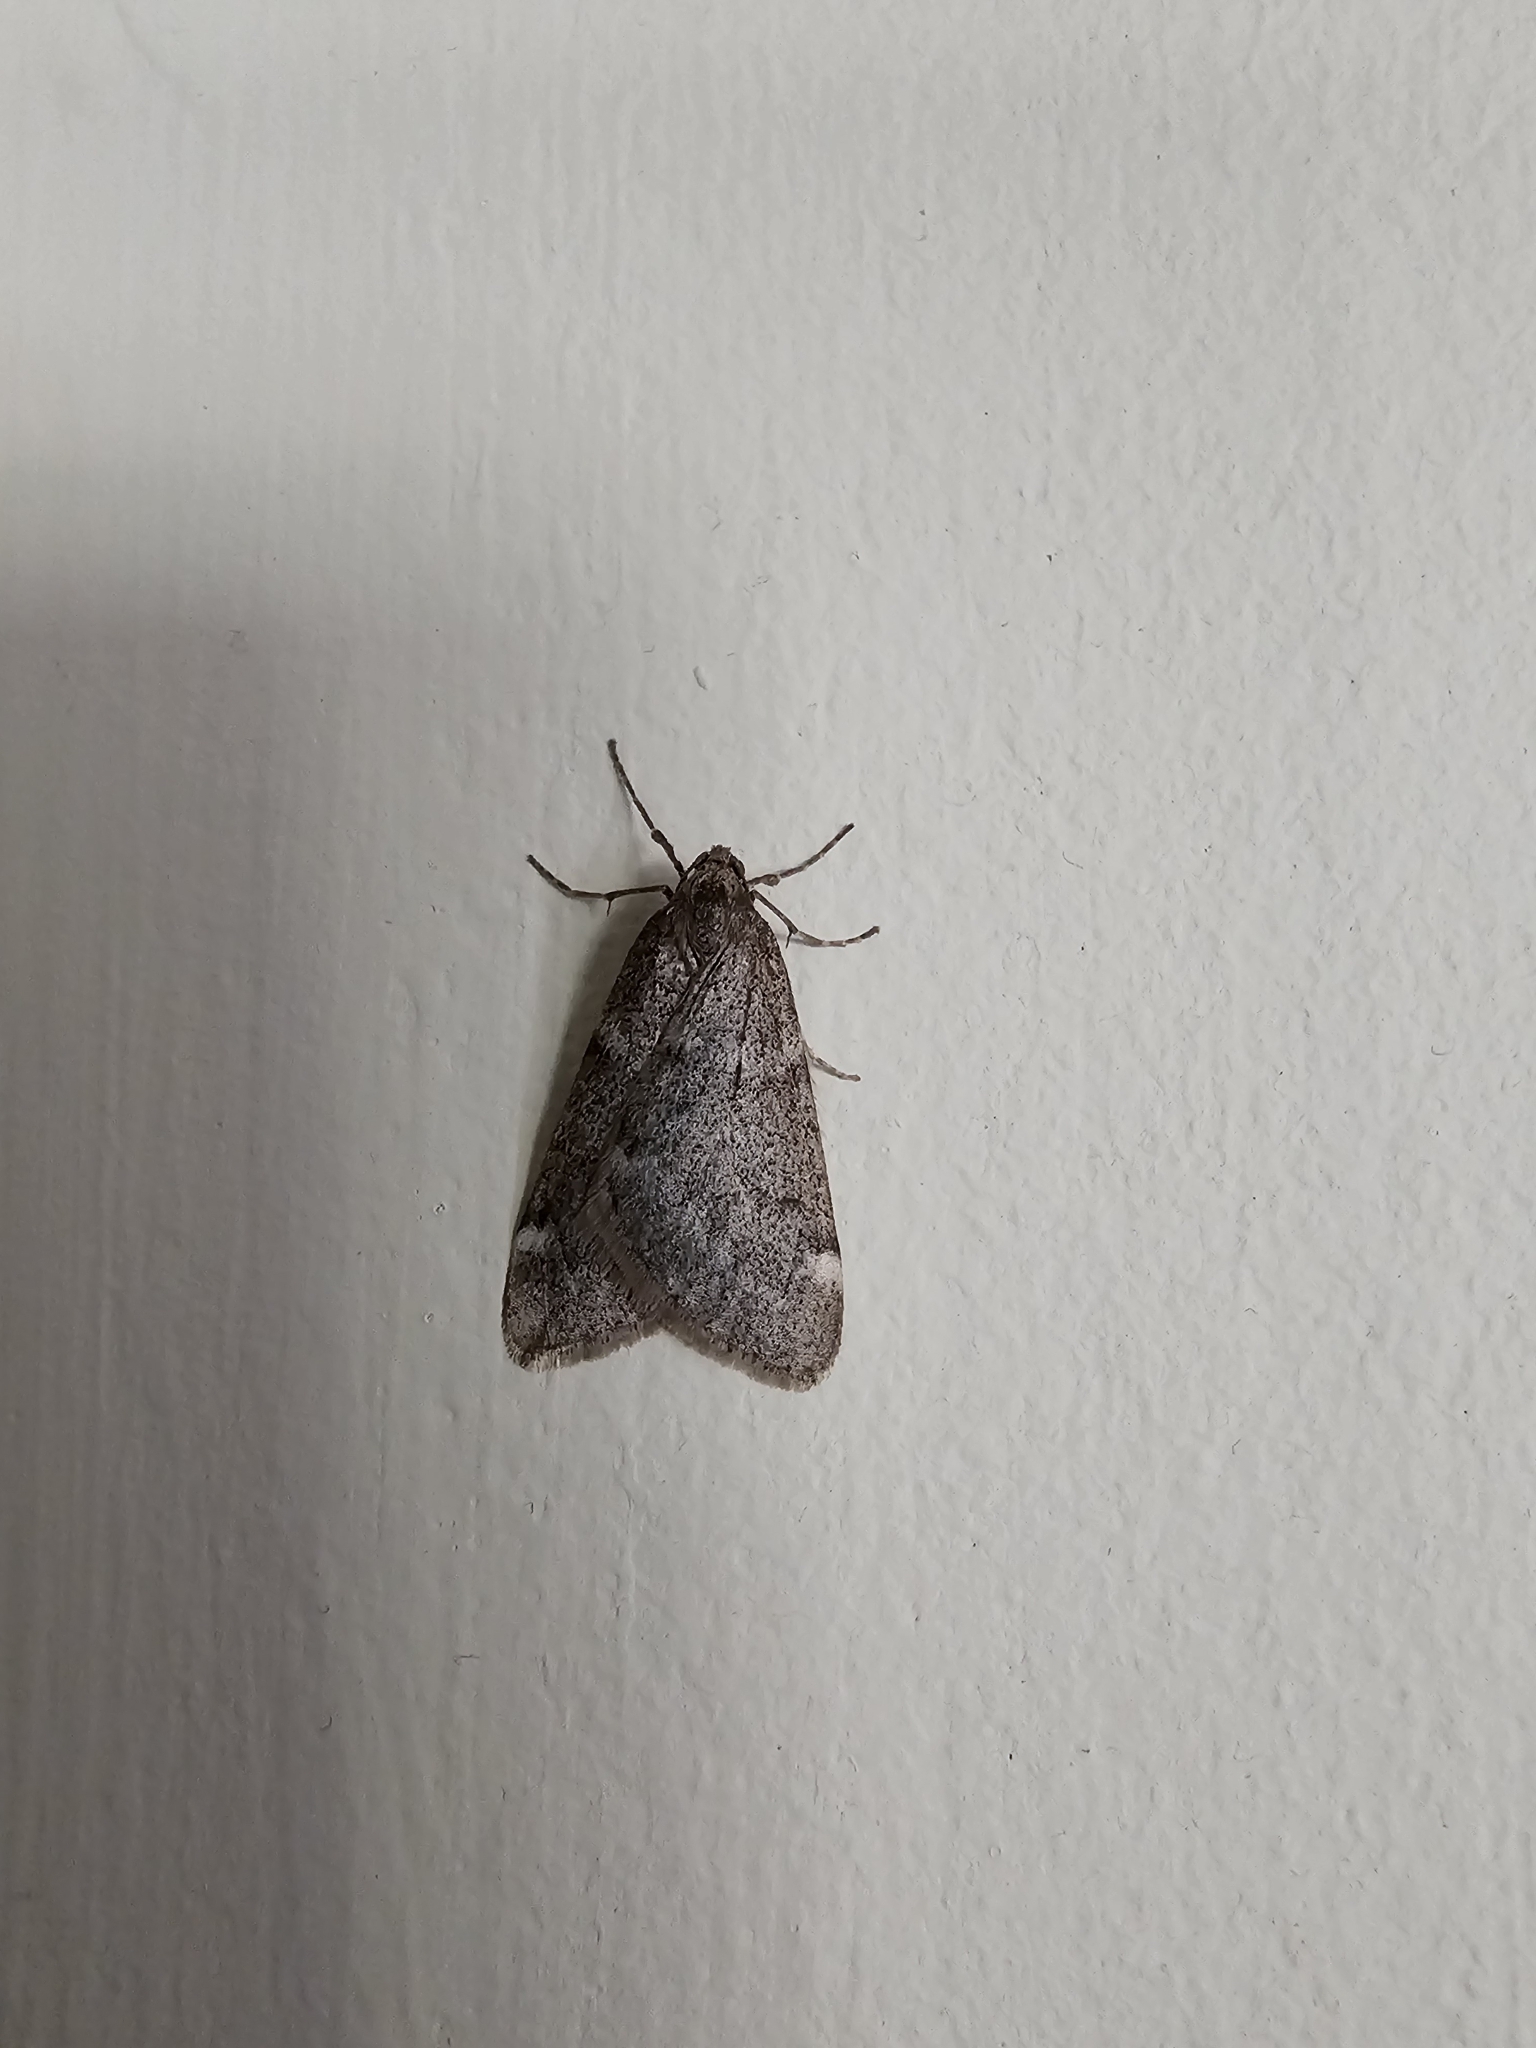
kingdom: Animalia
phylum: Arthropoda
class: Insecta
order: Lepidoptera
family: Geometridae
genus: Alsophila
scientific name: Alsophila pometaria
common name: Fall cankerworm
